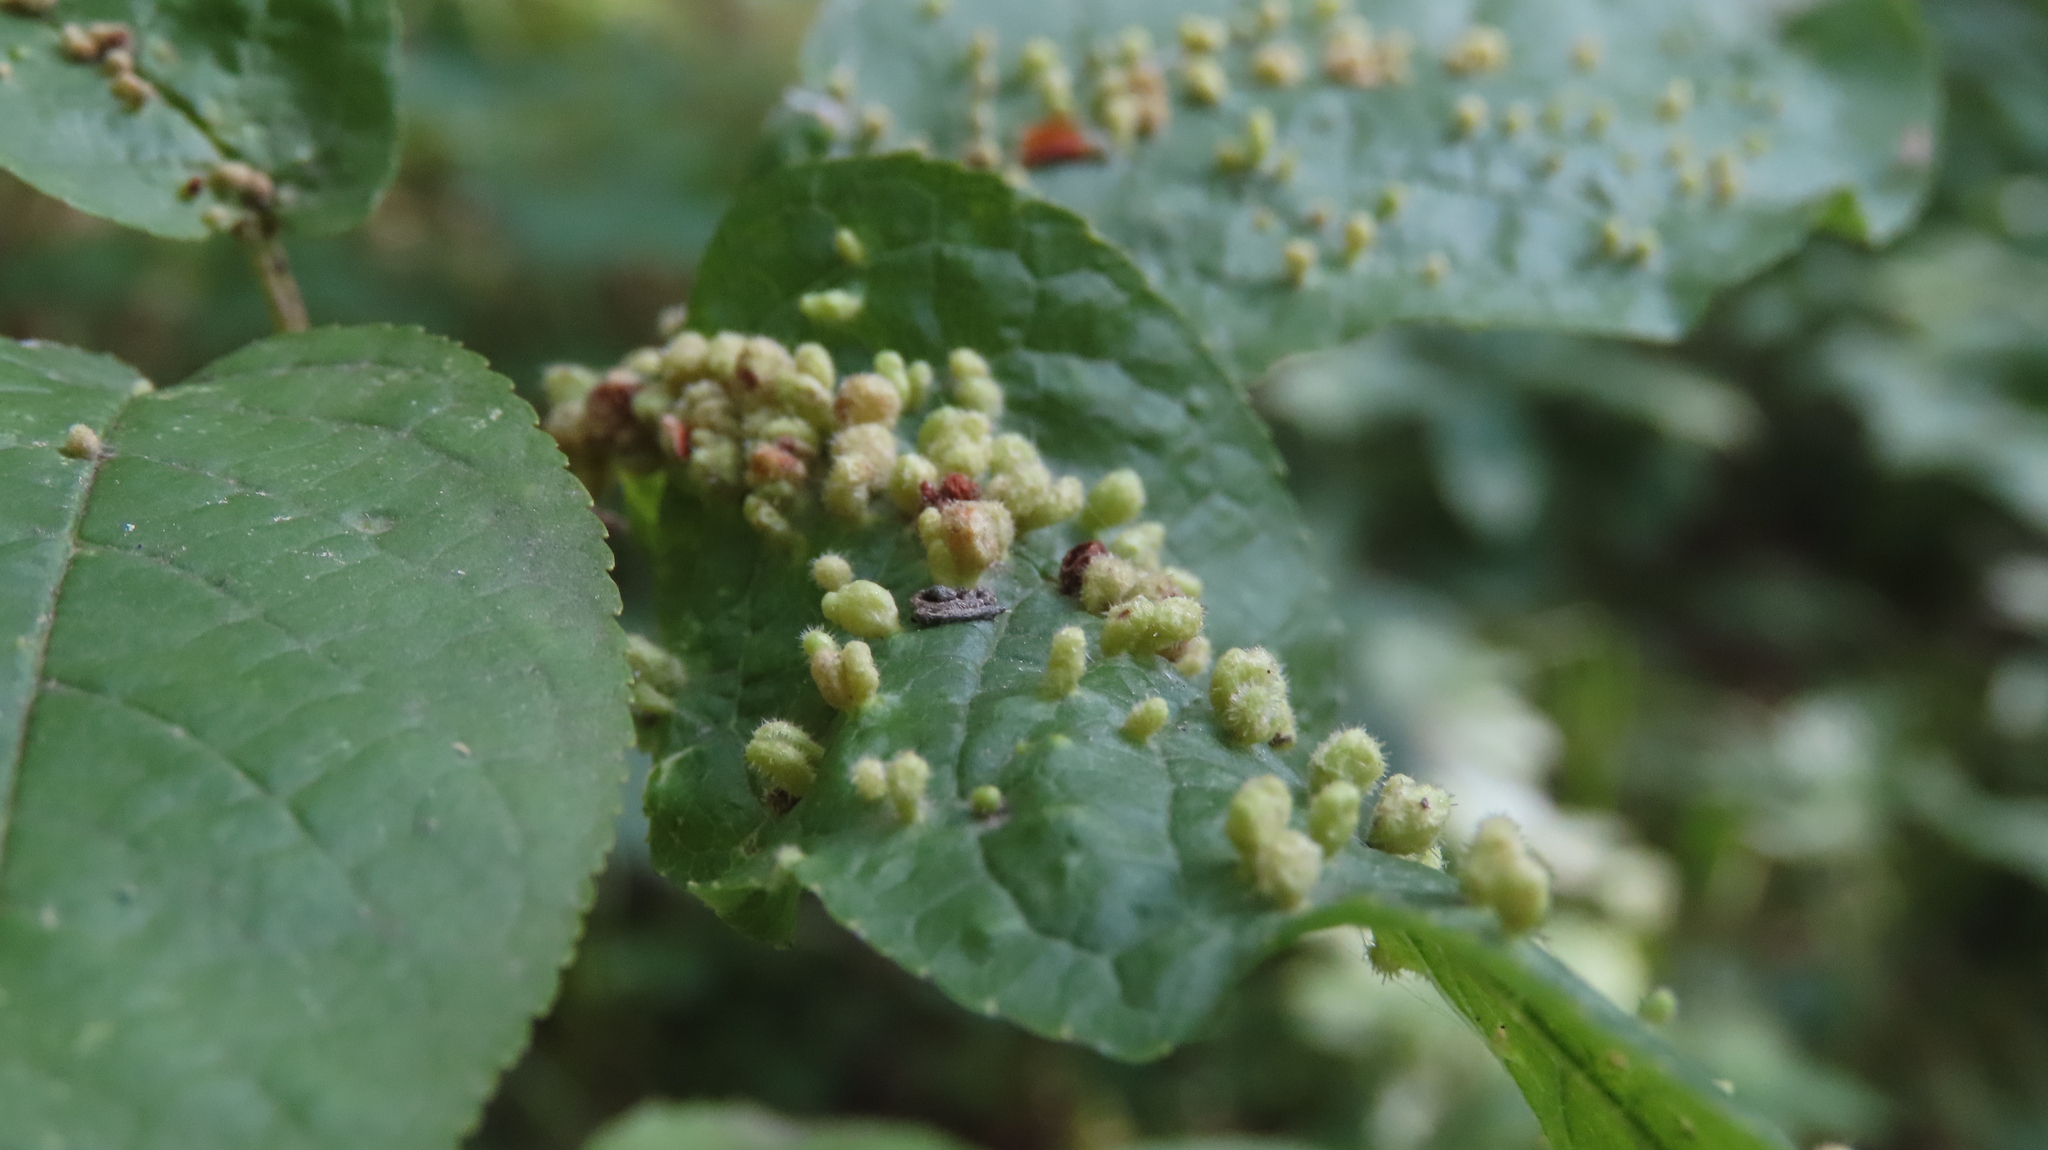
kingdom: Animalia
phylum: Arthropoda
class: Arachnida
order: Trombidiformes
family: Eriophyidae
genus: Phyllocoptes
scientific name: Phyllocoptes eupadi
